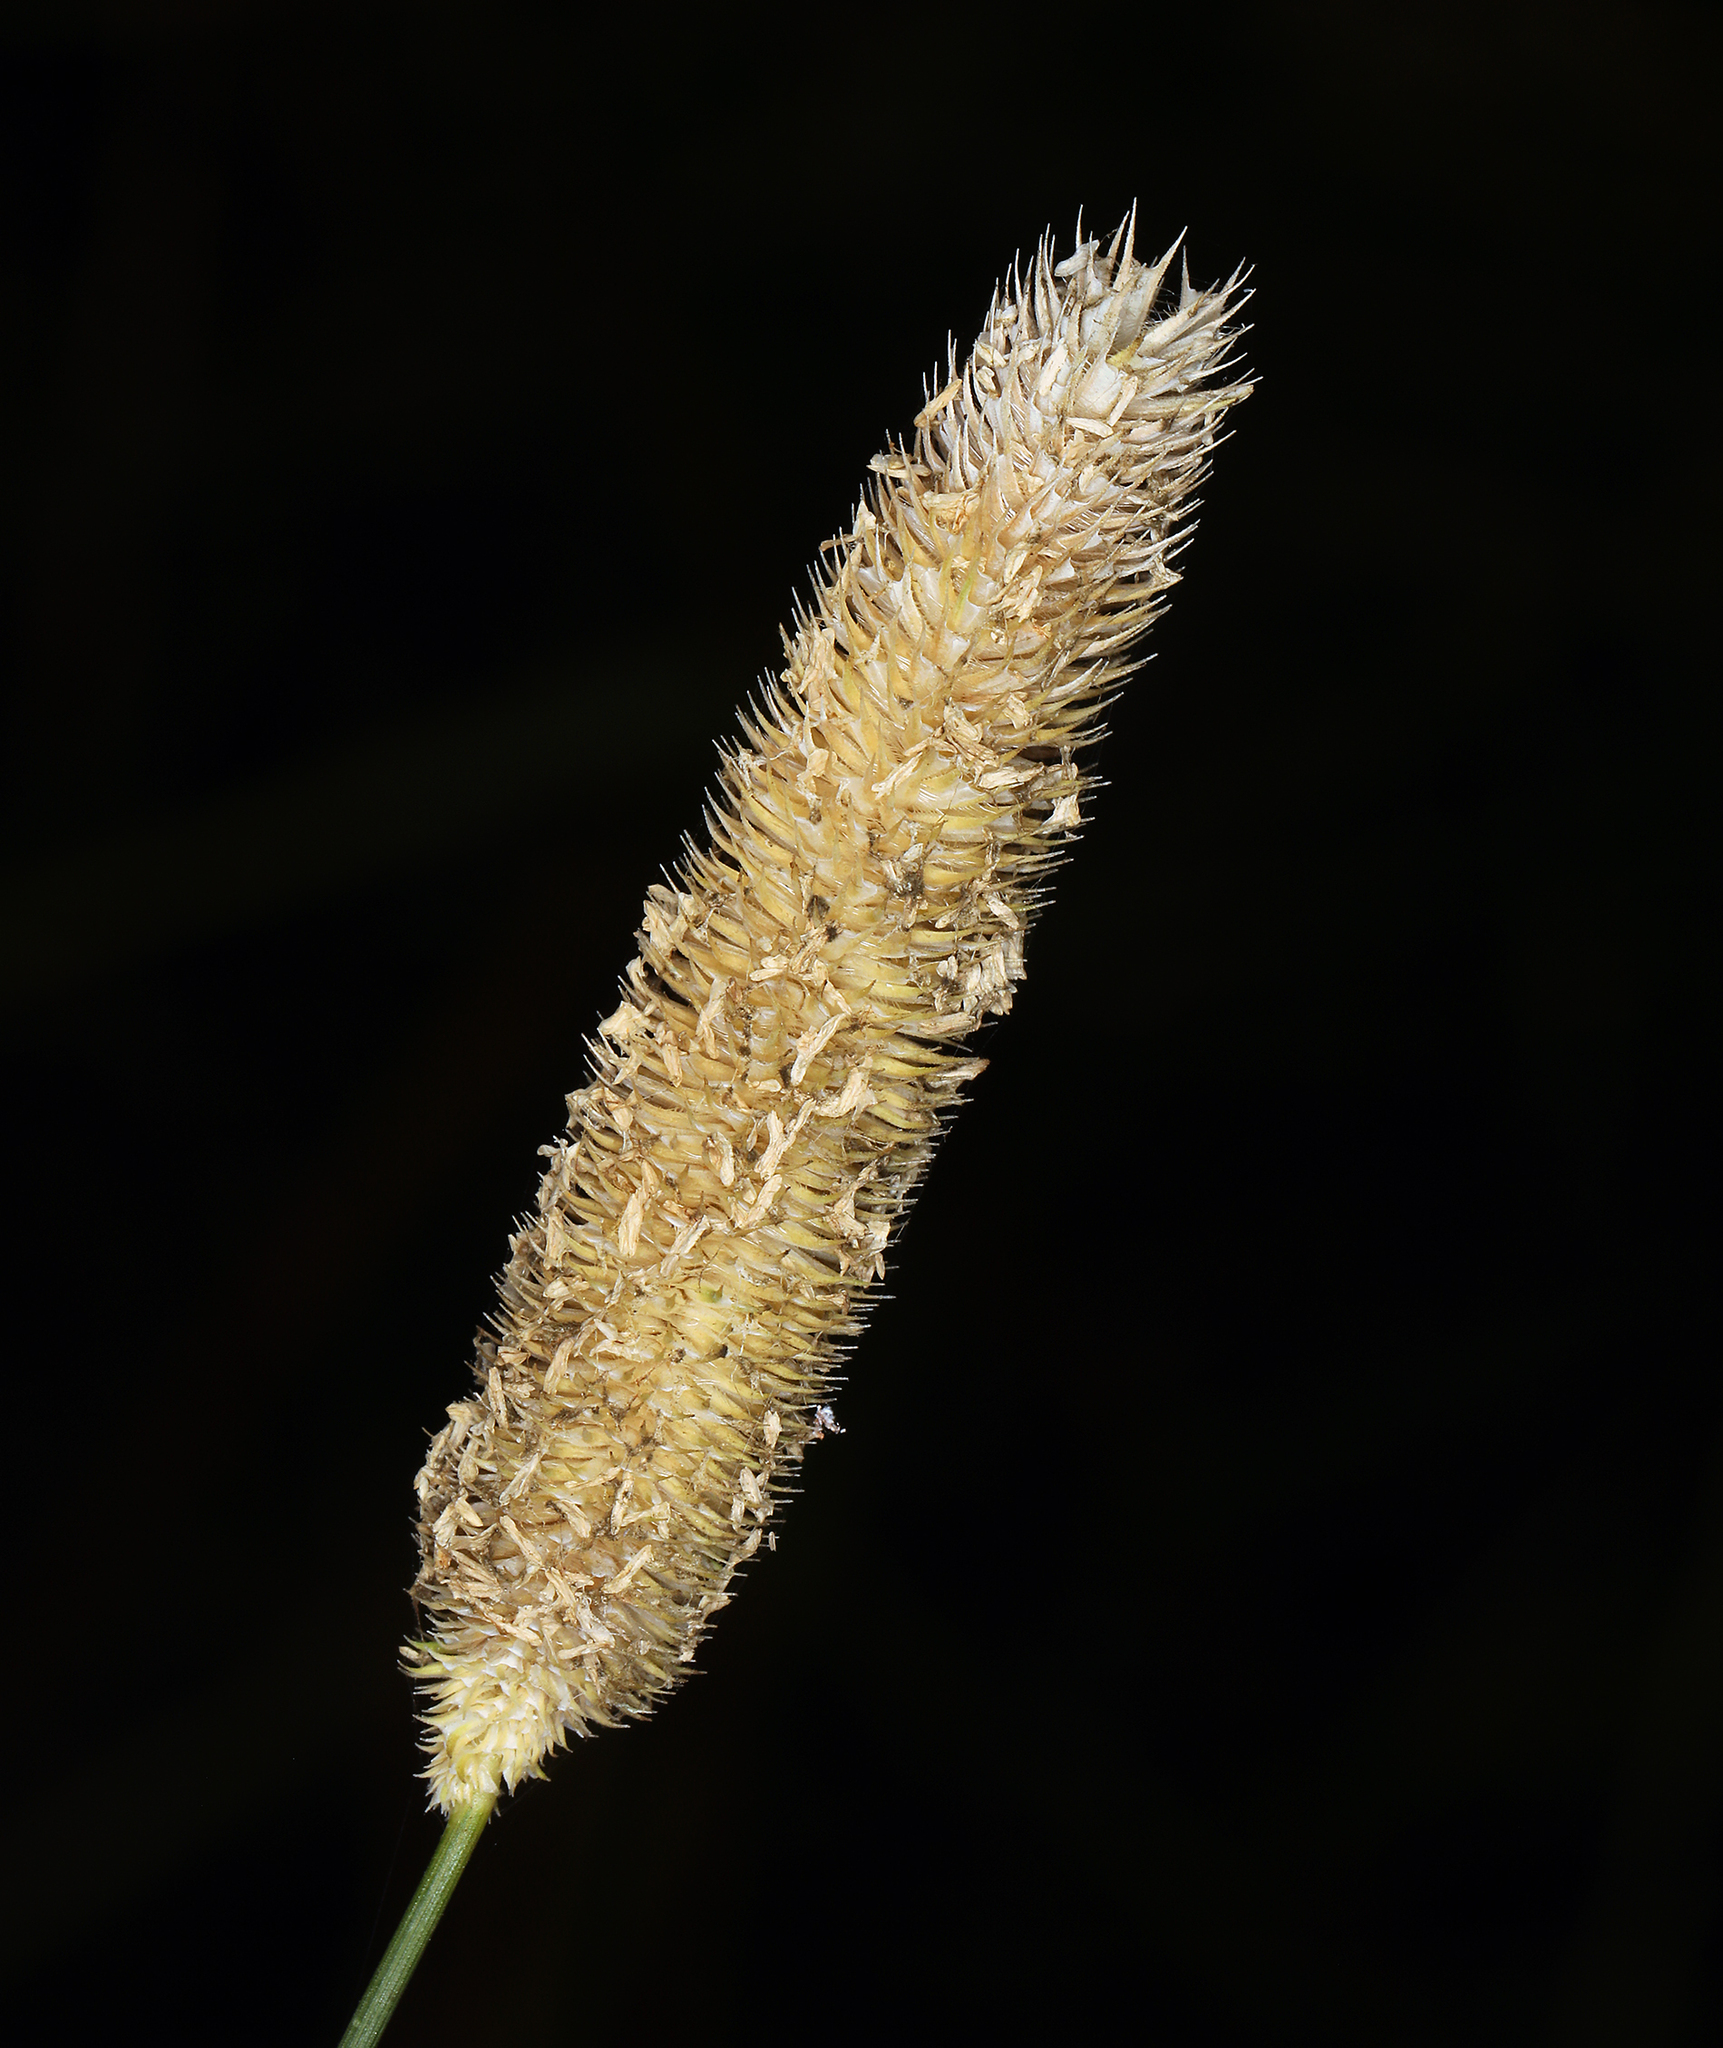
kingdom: Plantae
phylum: Tracheophyta
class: Liliopsida
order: Poales
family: Poaceae
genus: Phleum
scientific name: Phleum pratense
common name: Timothy grass
